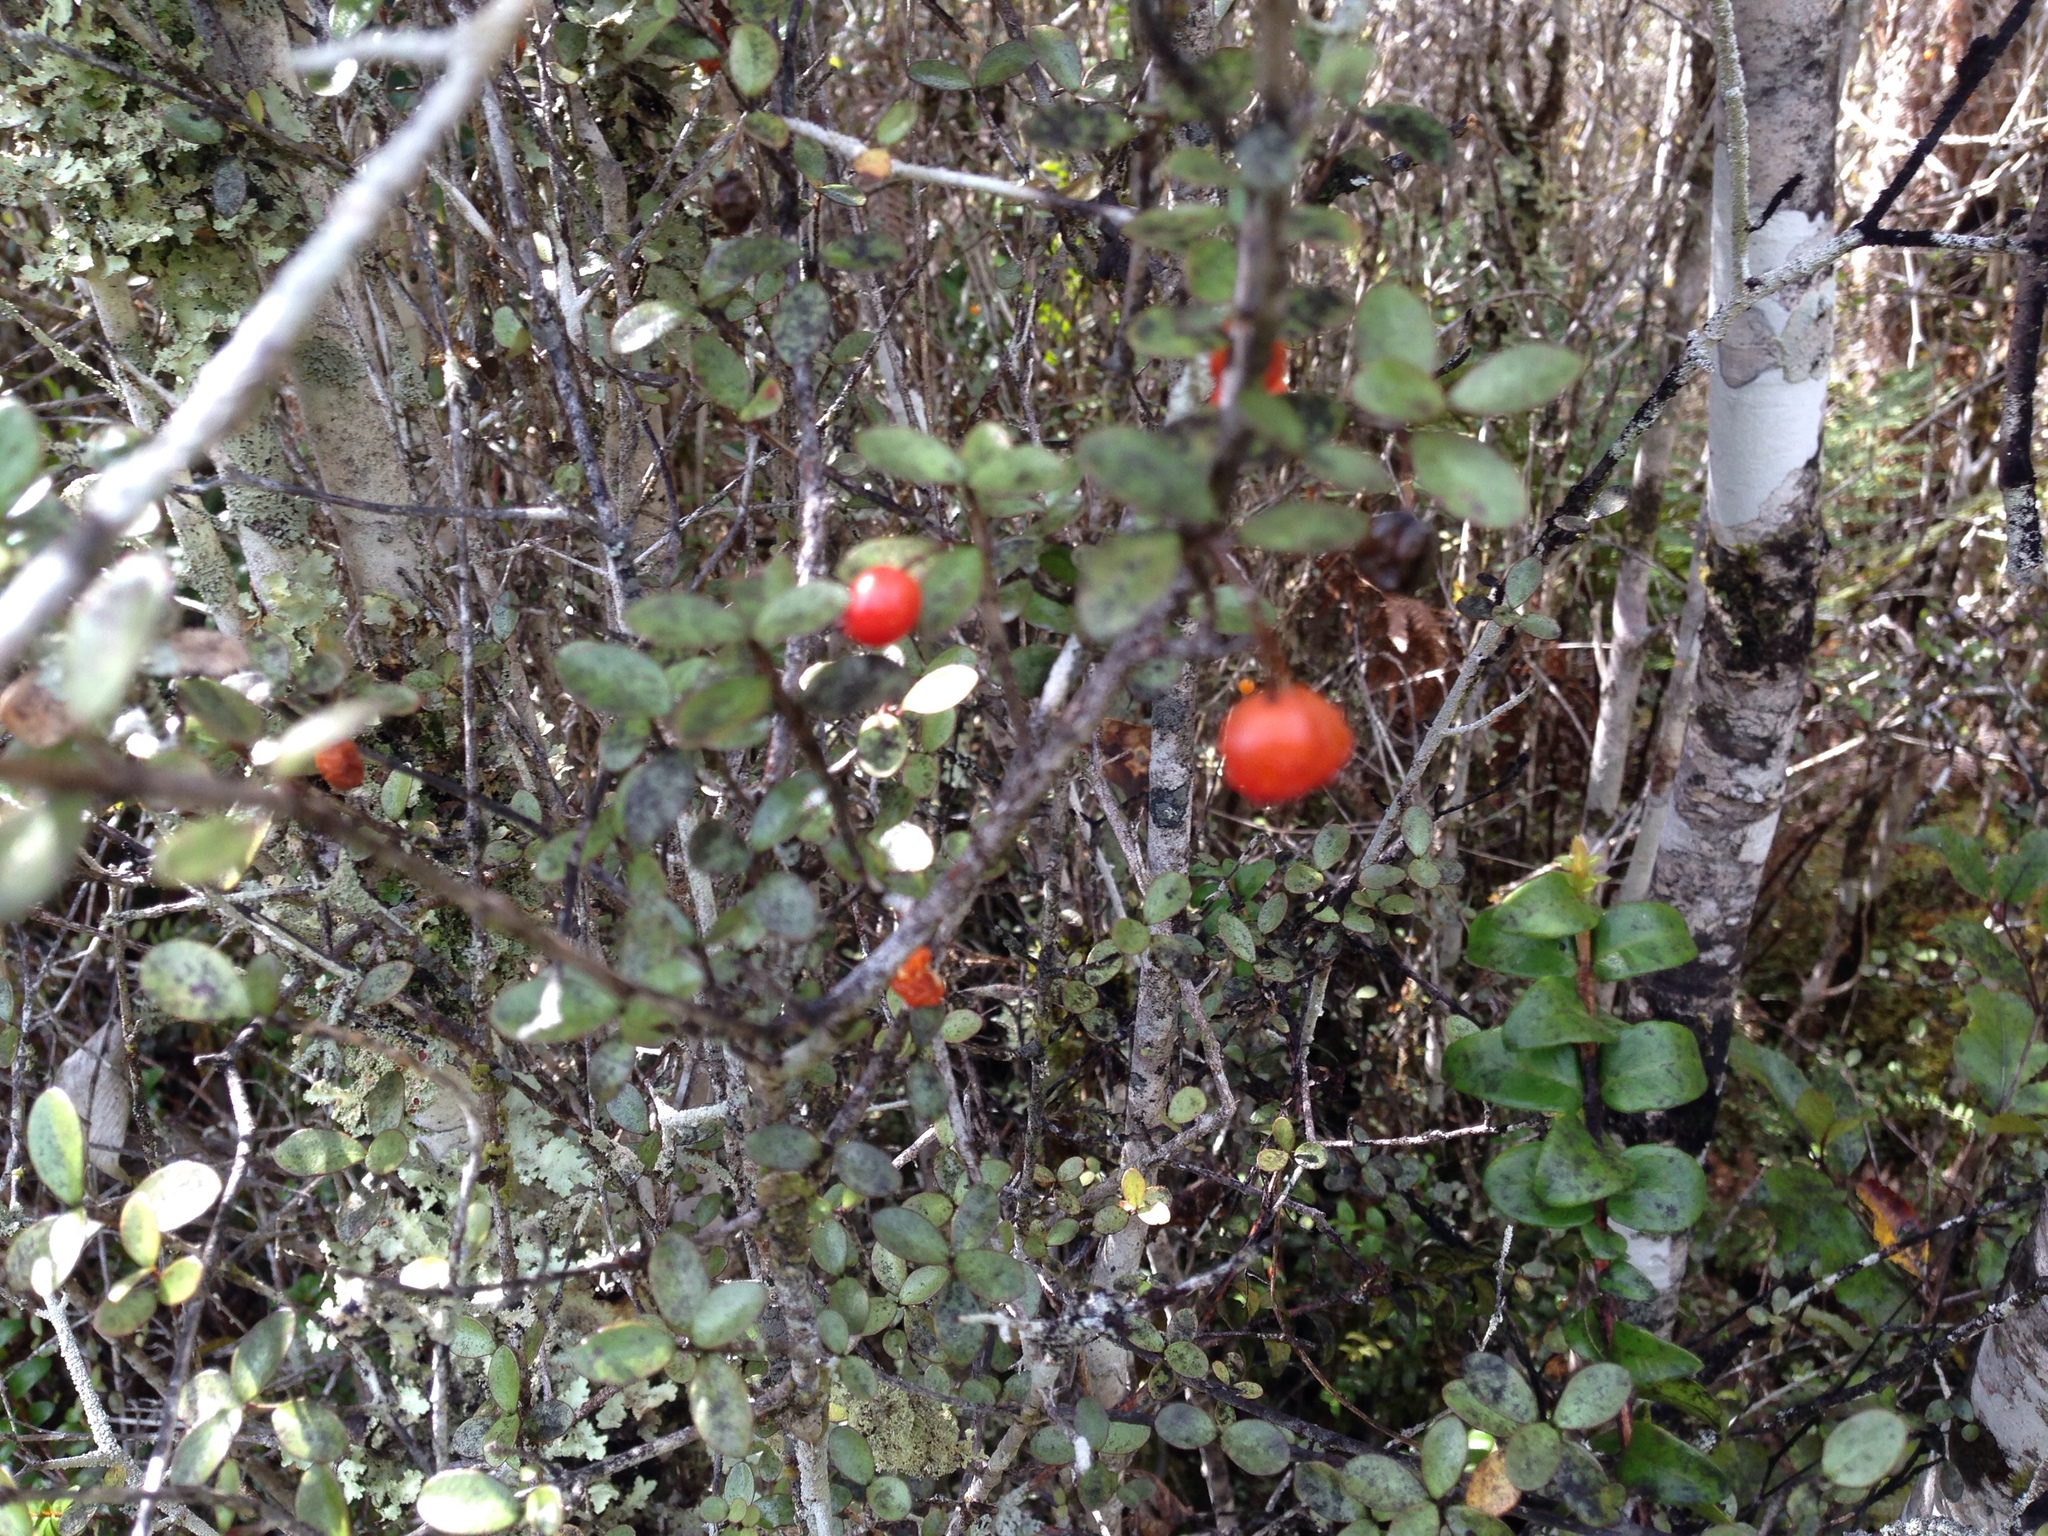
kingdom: Plantae
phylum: Tracheophyta
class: Magnoliopsida
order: Myrtales
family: Myrtaceae
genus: Neomyrtus
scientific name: Neomyrtus pedunculata
